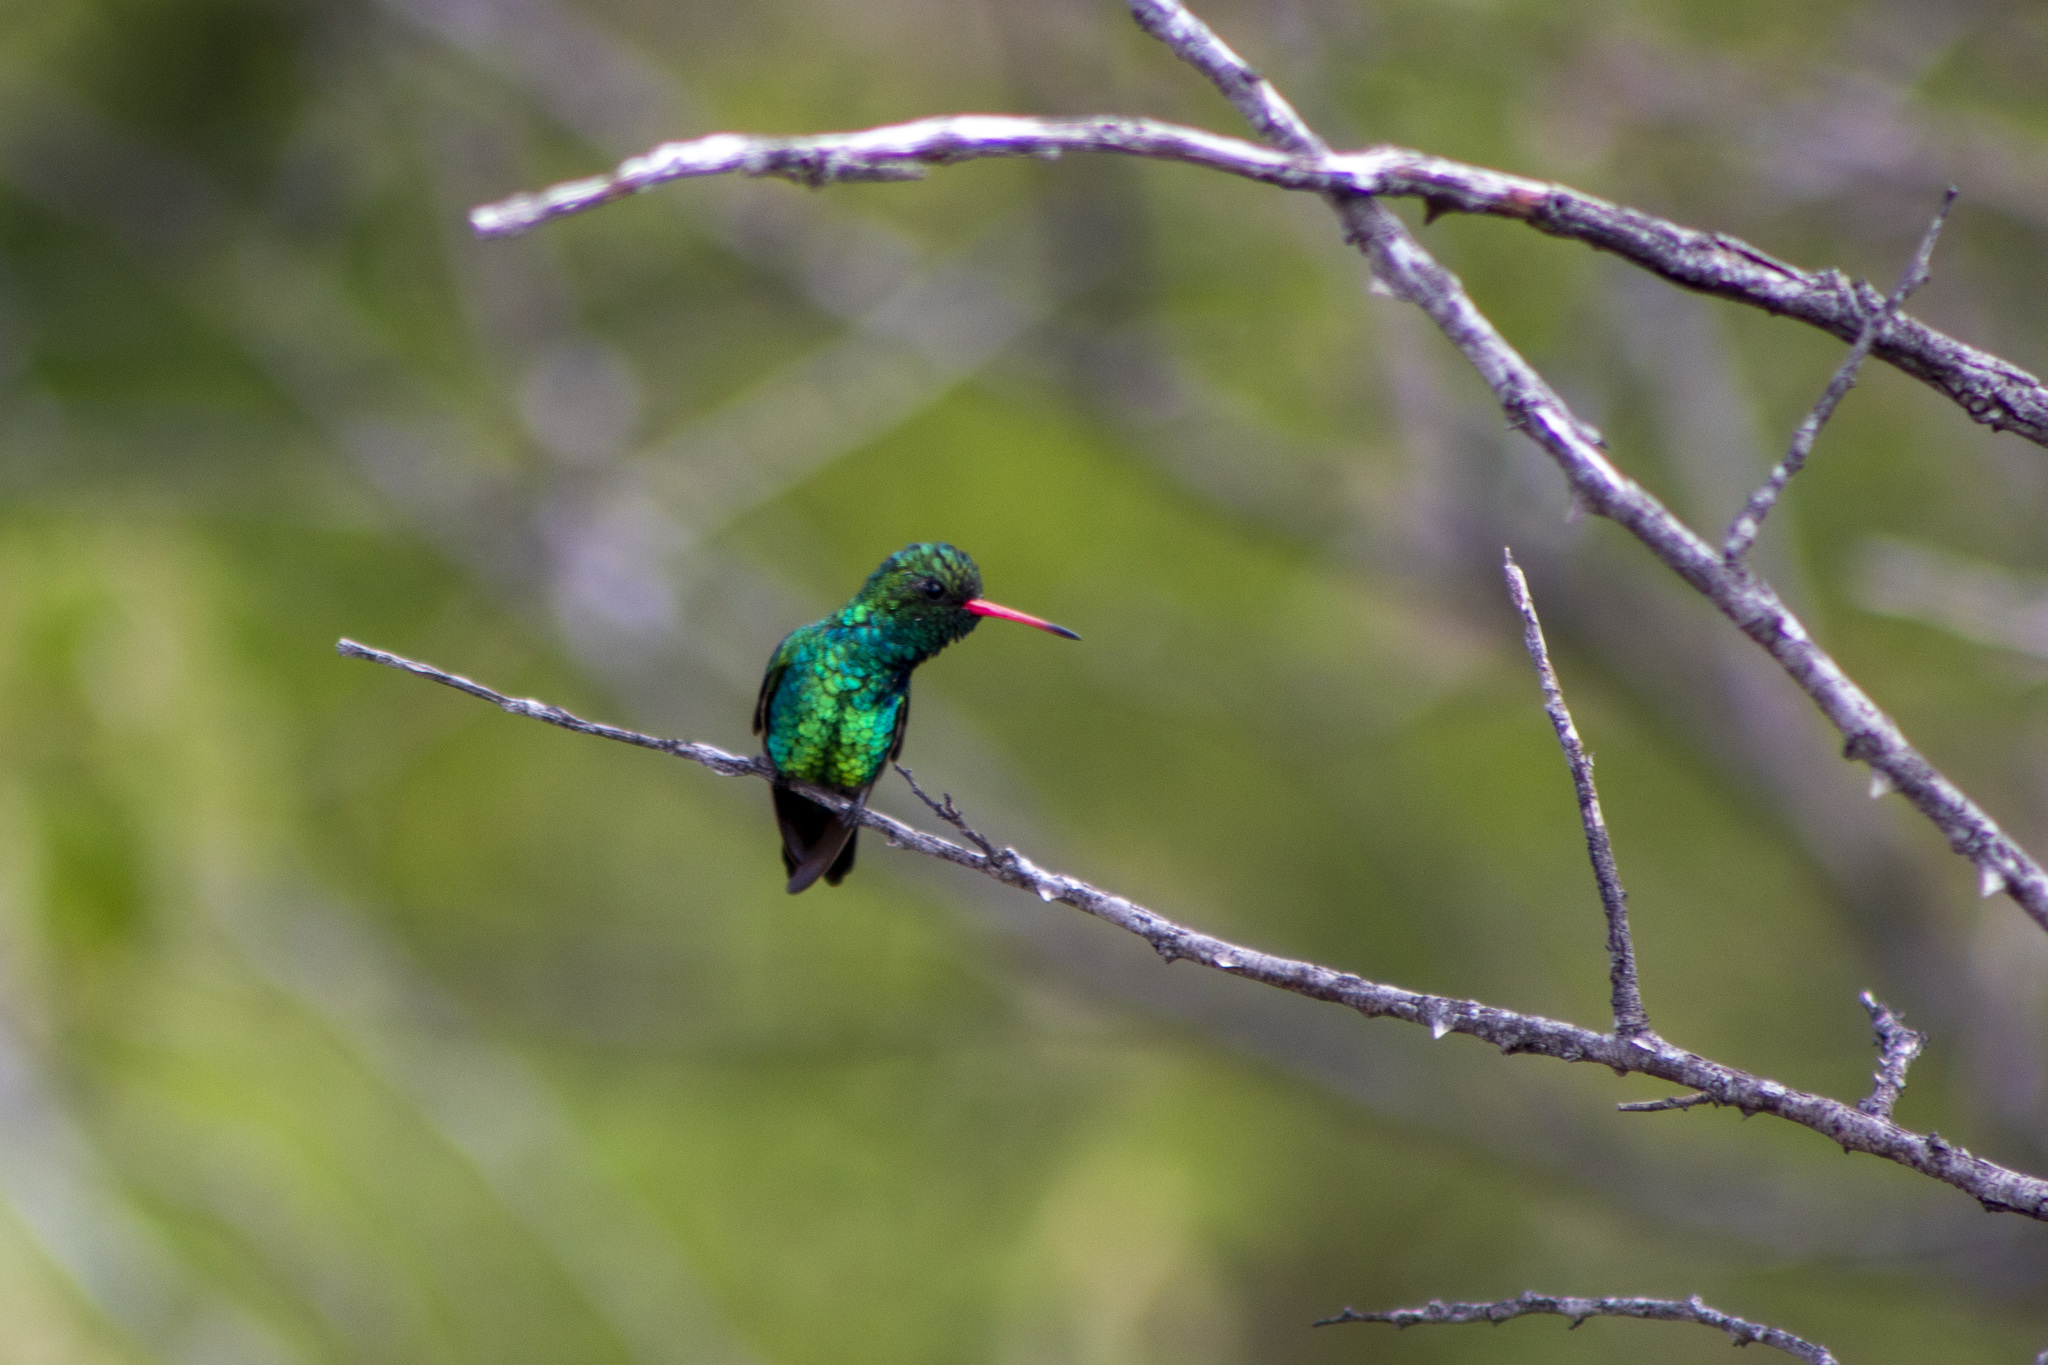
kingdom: Animalia
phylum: Chordata
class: Aves
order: Apodiformes
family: Trochilidae
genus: Chlorostilbon
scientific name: Chlorostilbon lucidus
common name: Glittering-bellied emerald
